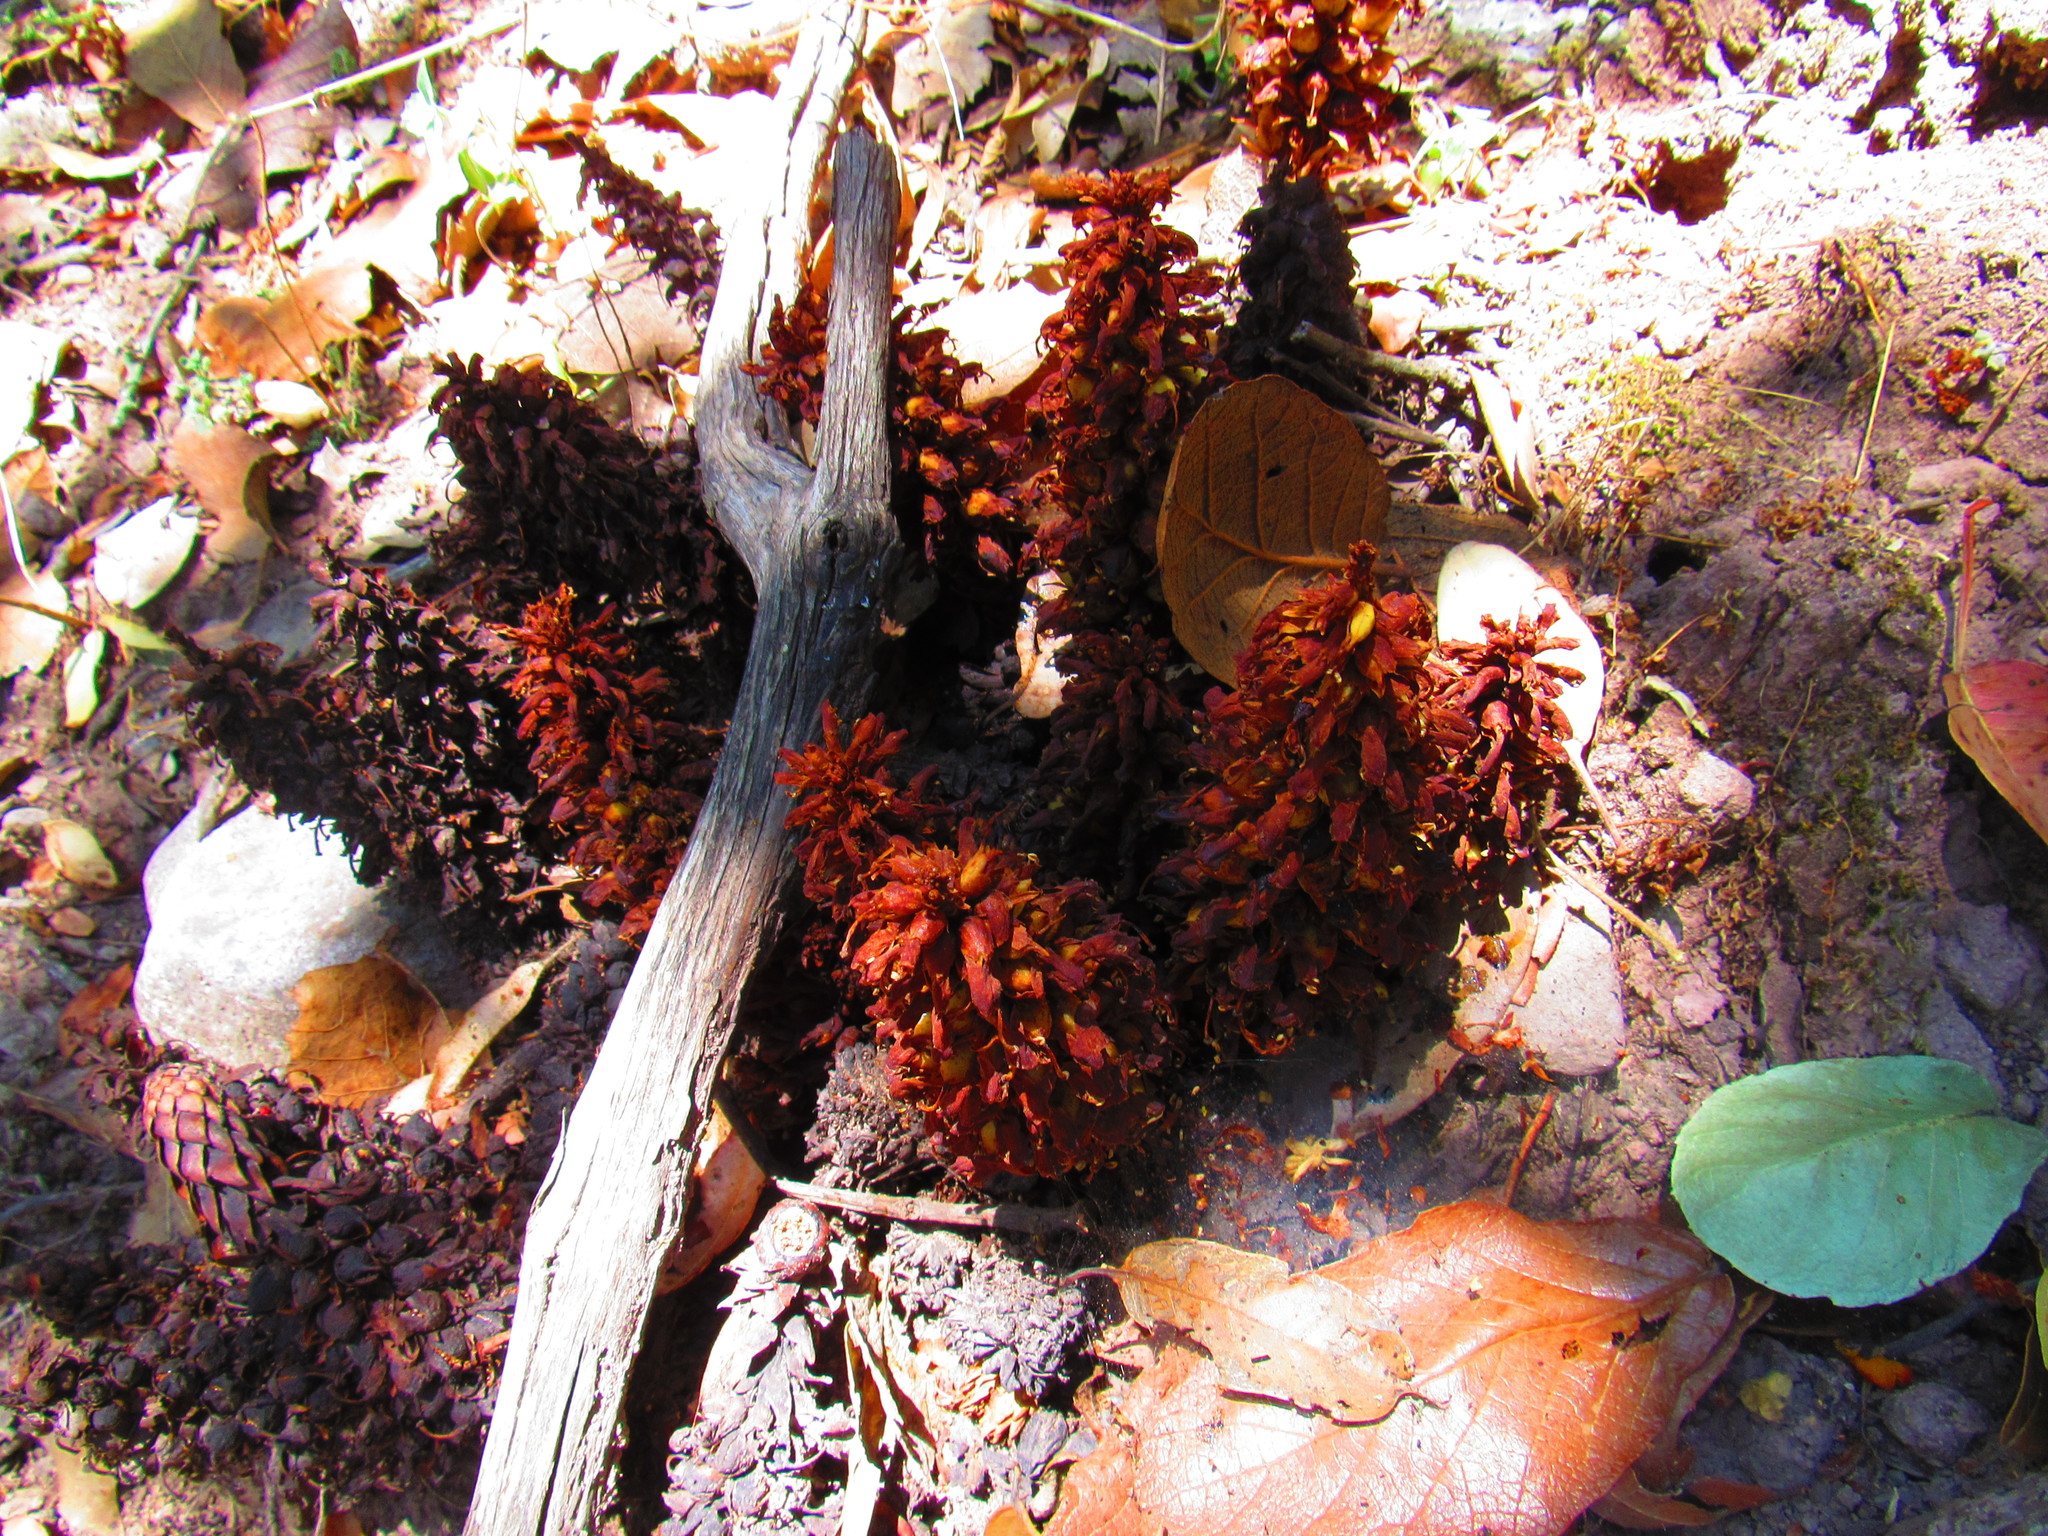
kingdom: Plantae
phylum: Tracheophyta
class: Magnoliopsida
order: Lamiales
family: Orobanchaceae
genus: Conopholis
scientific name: Conopholis alpina
